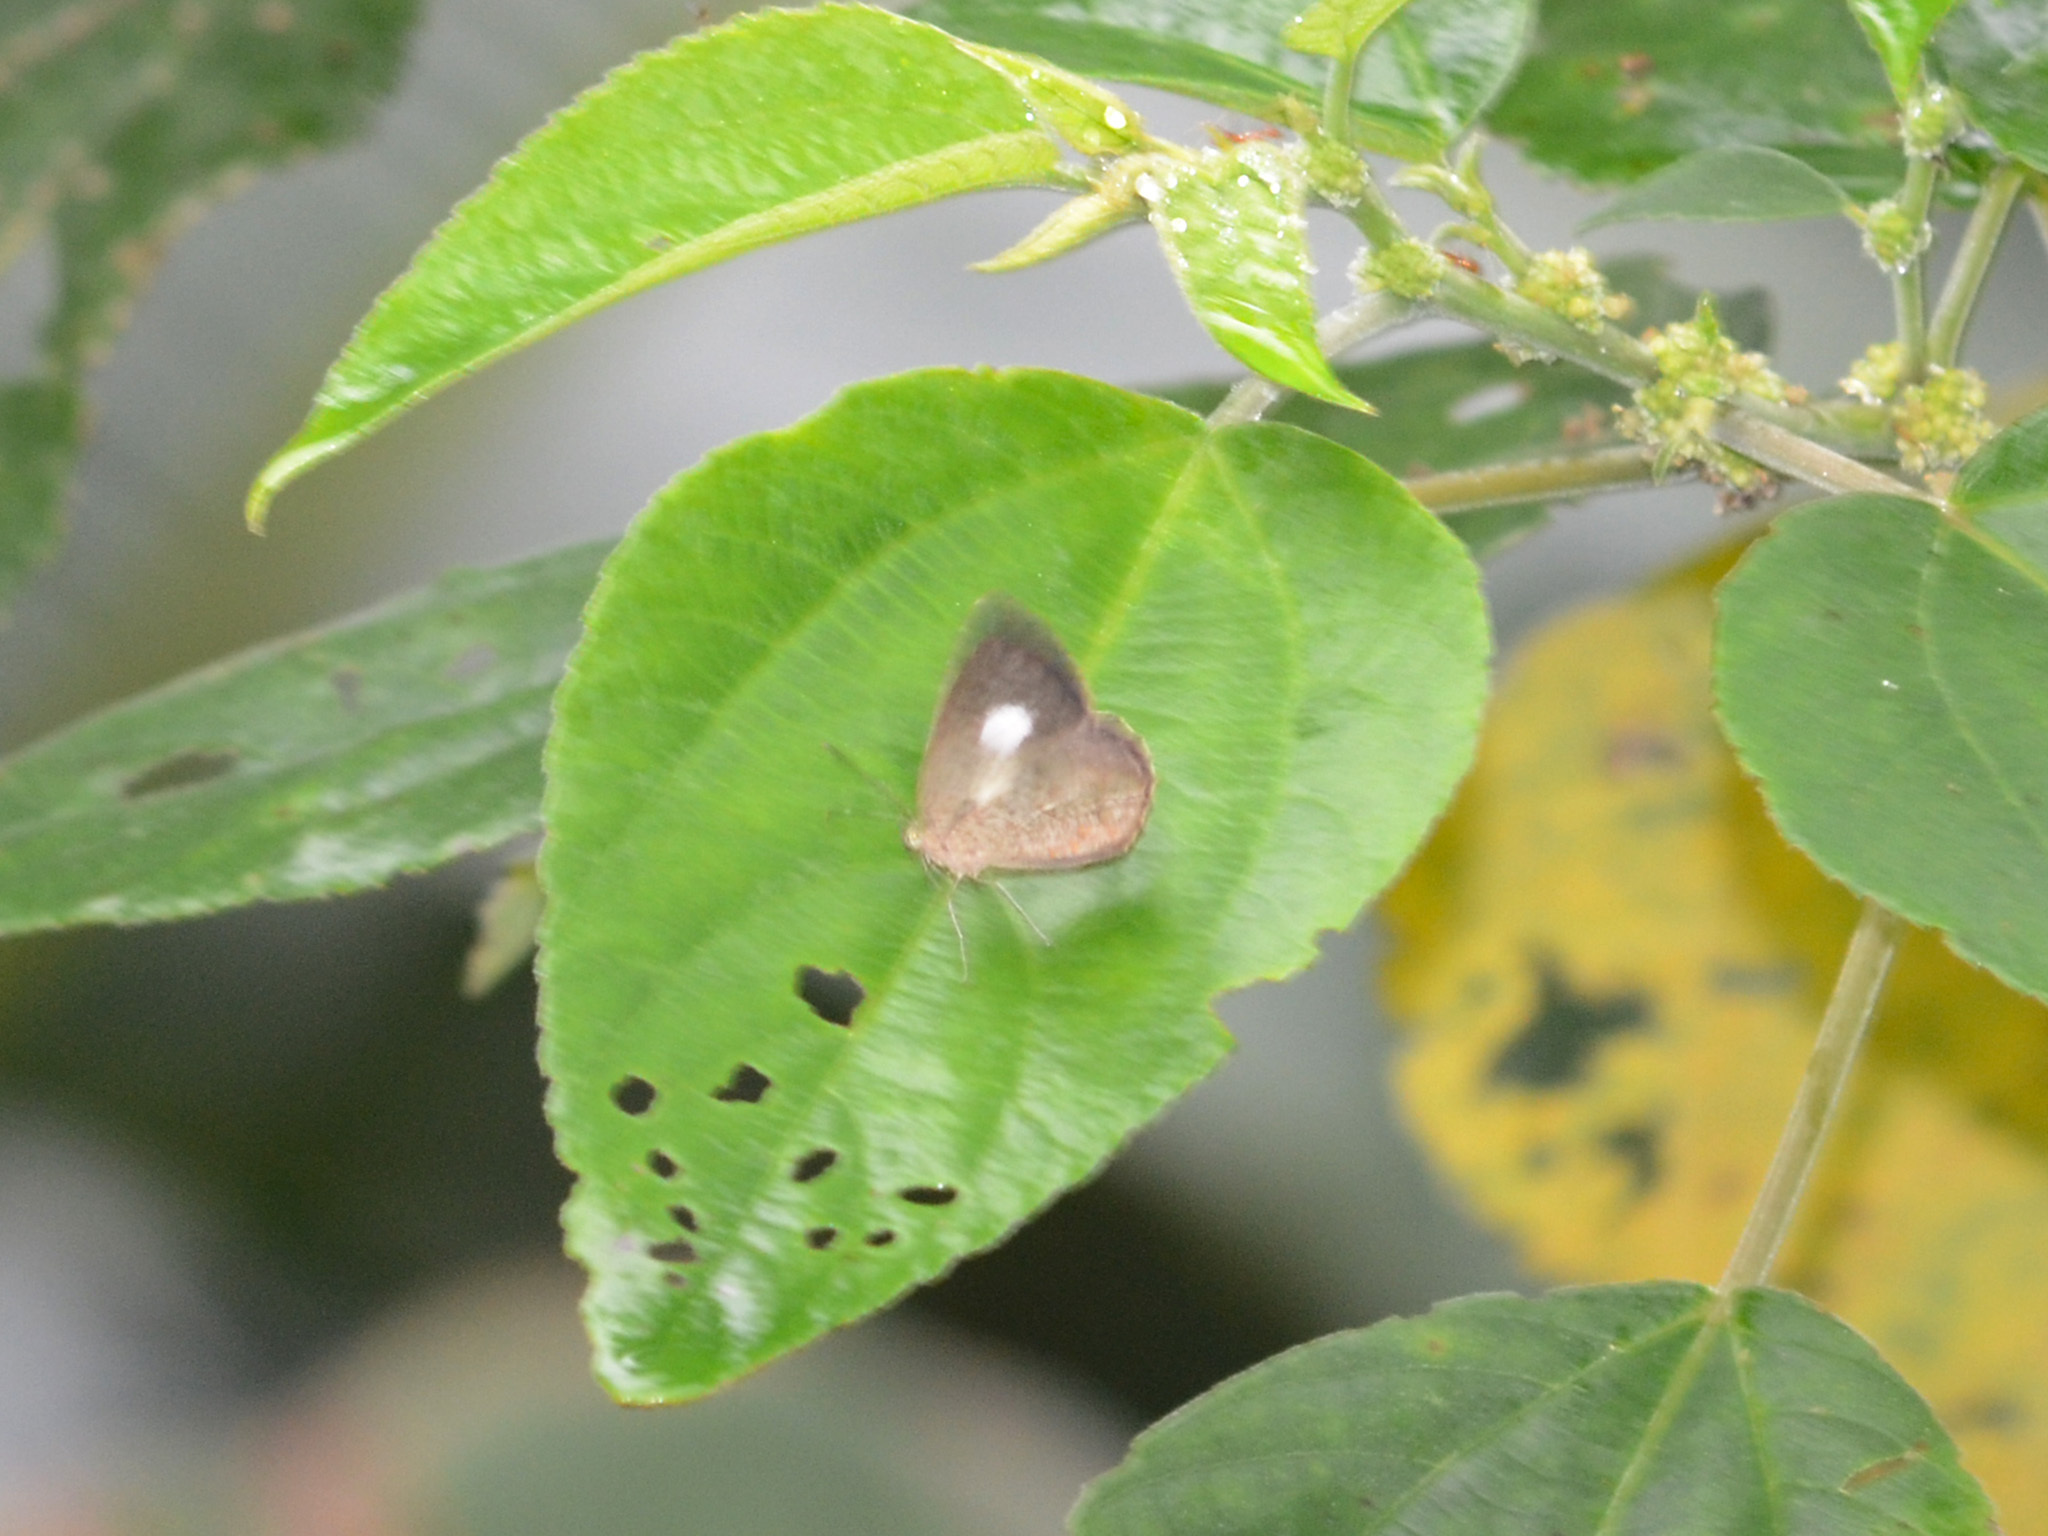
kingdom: Animalia
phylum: Arthropoda
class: Insecta
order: Lepidoptera
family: Lycaenidae
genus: Allotinus
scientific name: Allotinus fallax
